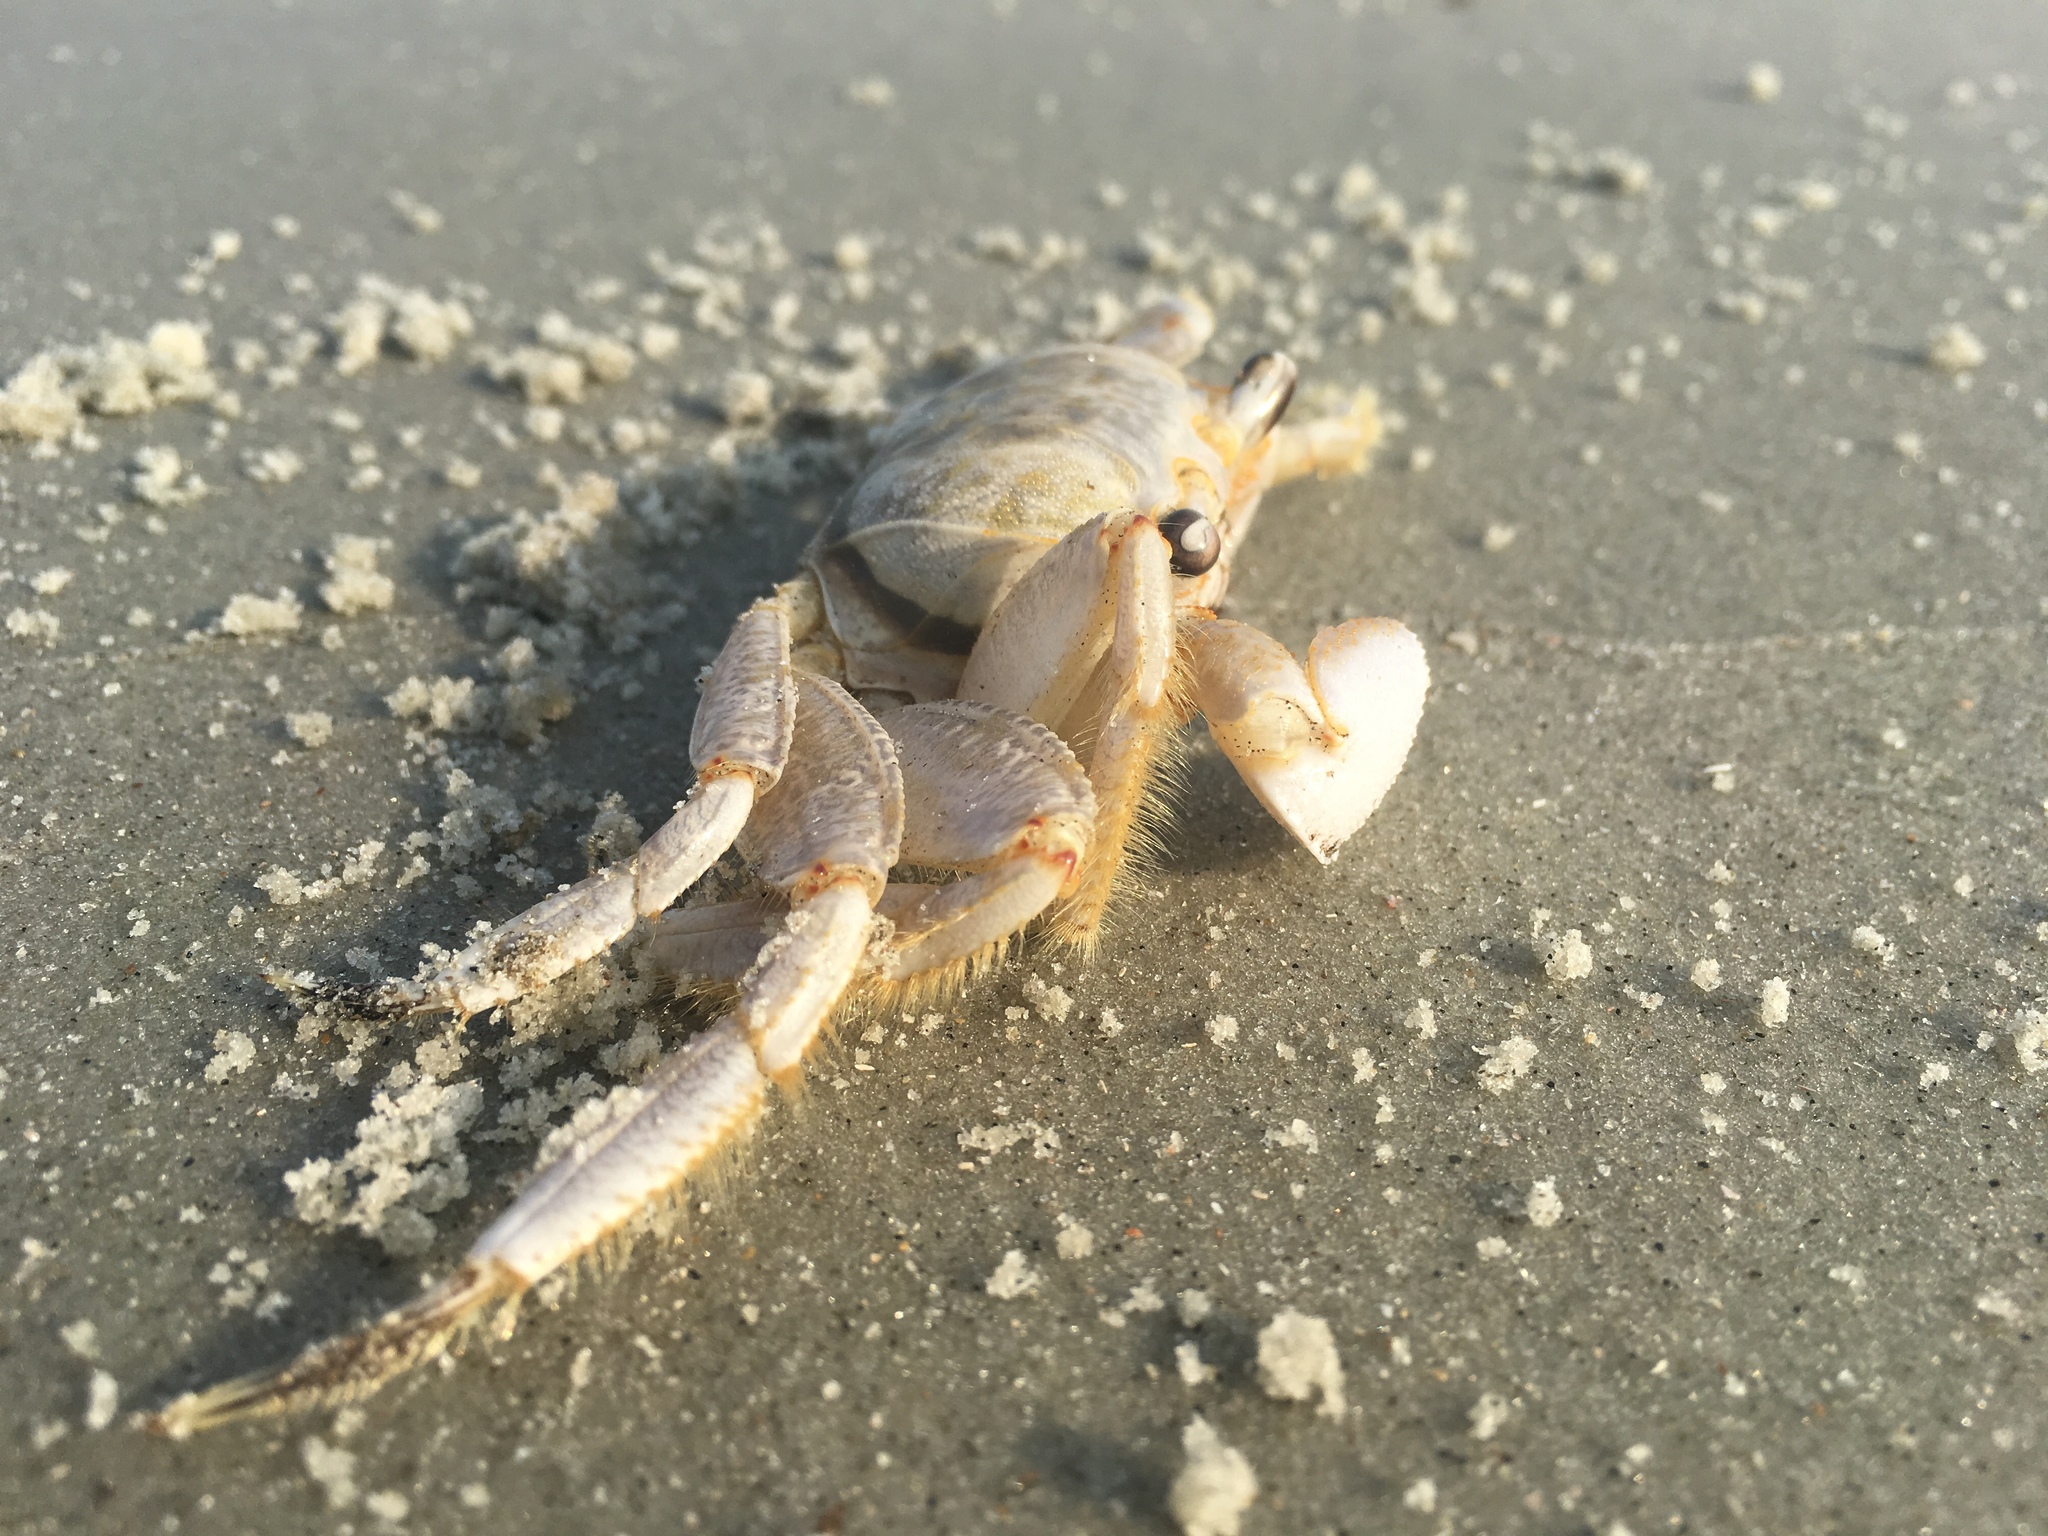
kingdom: Animalia
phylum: Arthropoda
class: Malacostraca
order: Decapoda
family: Ocypodidae
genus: Ocypode
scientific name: Ocypode quadrata
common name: Ghost crab
